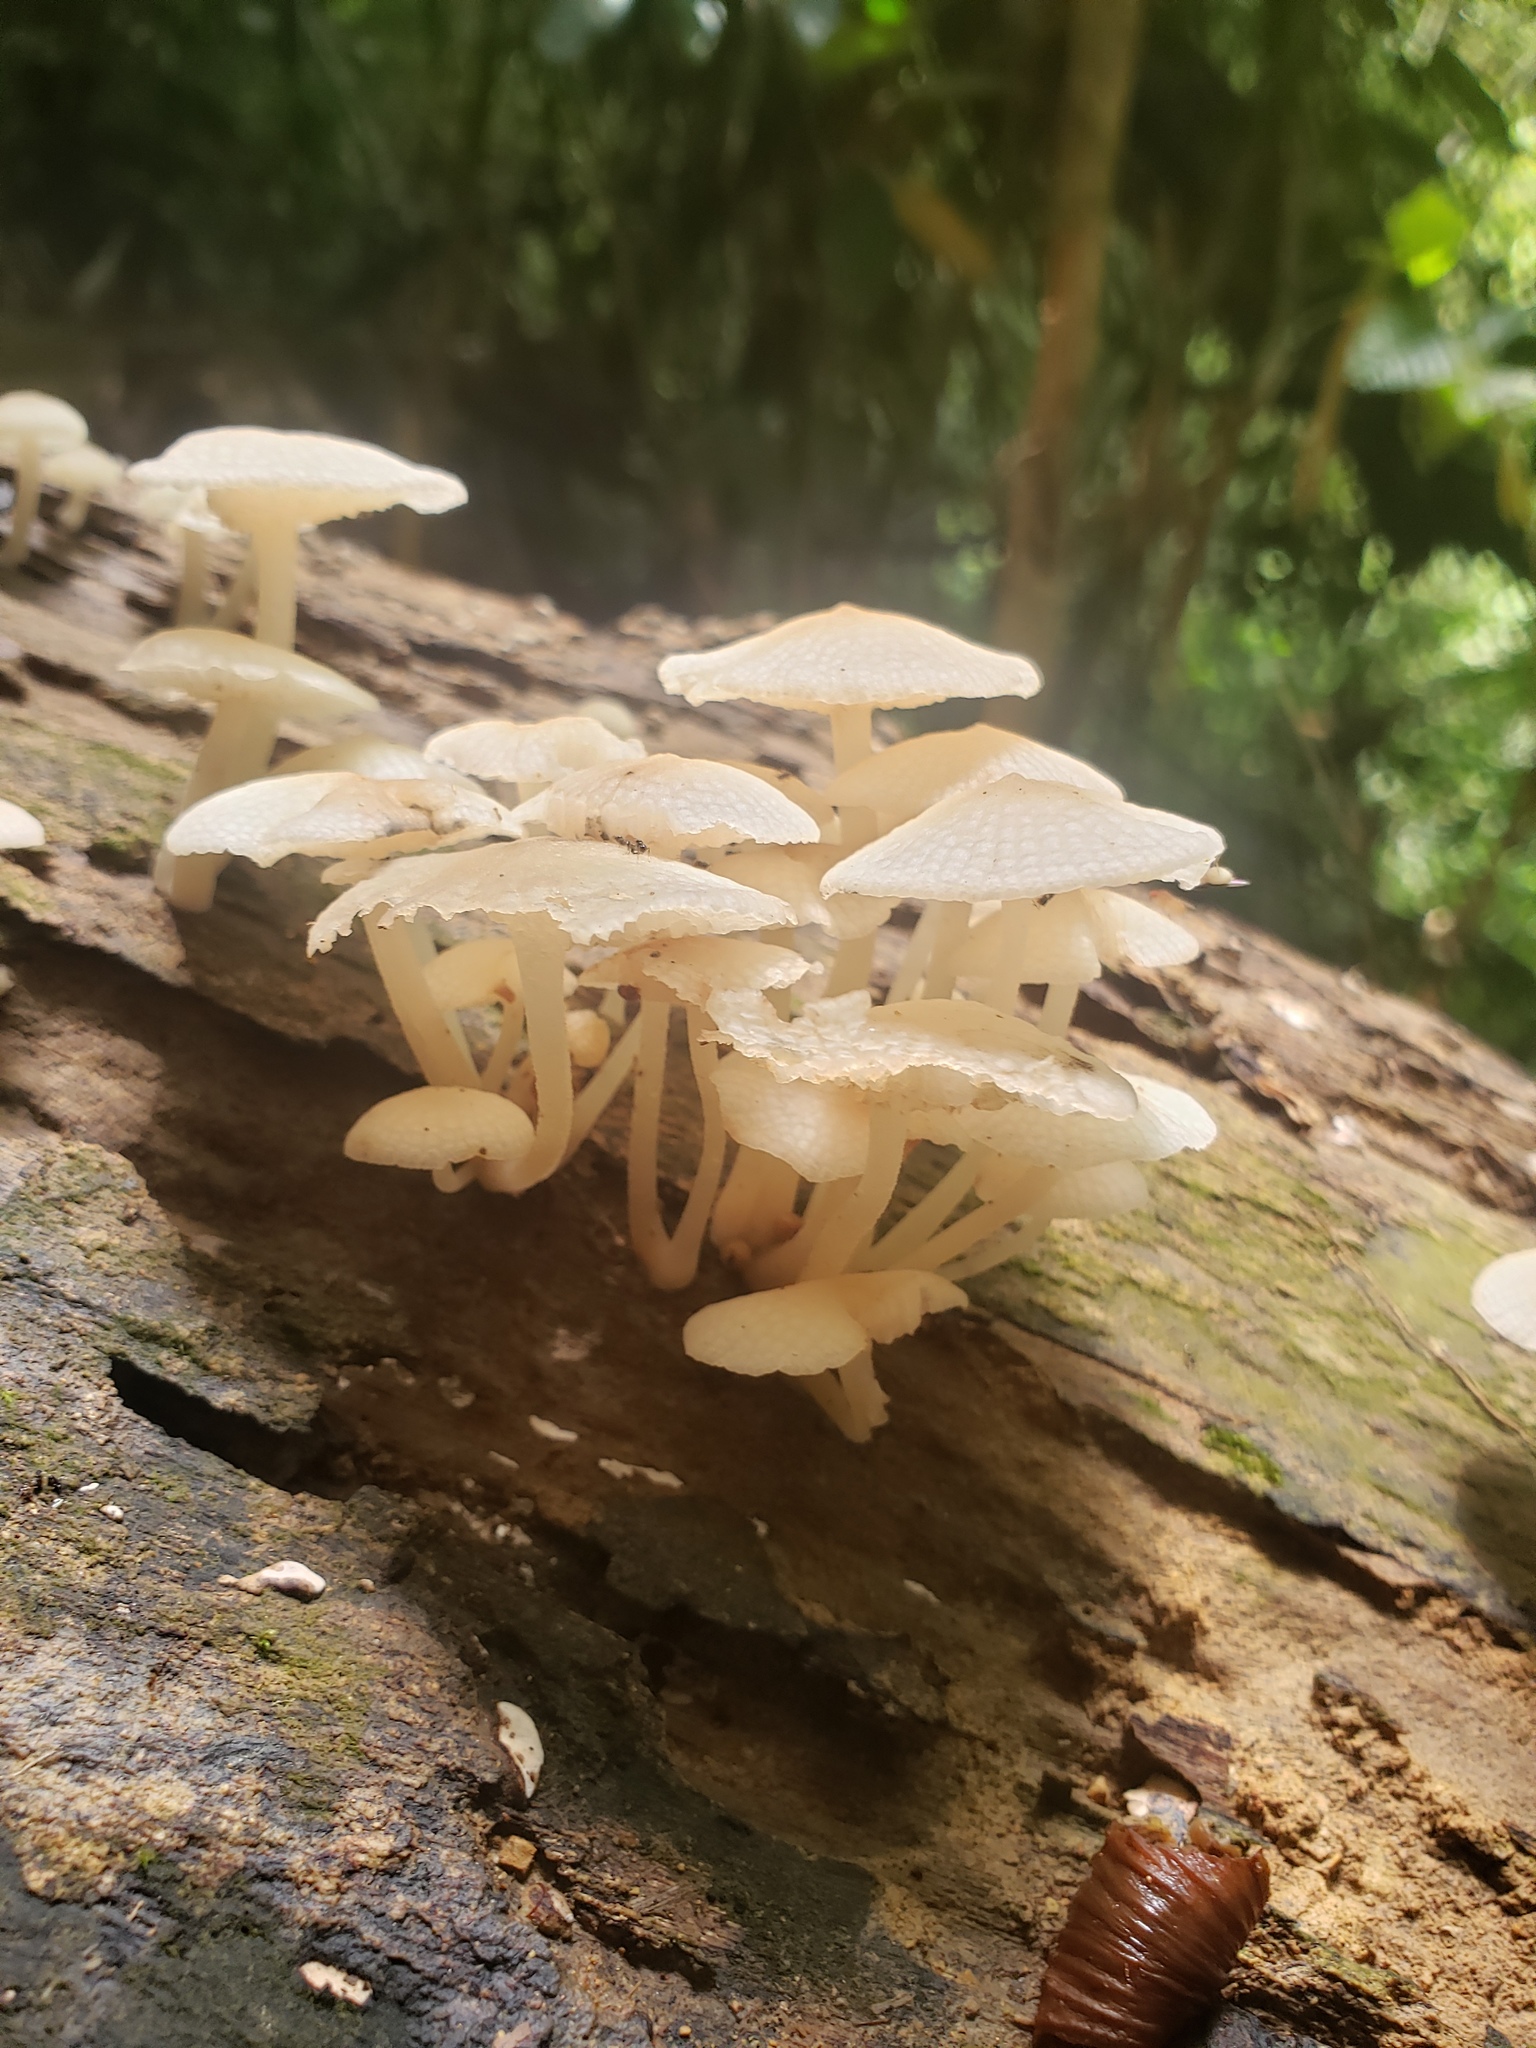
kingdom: Fungi
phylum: Basidiomycota
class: Agaricomycetes
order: Agaricales
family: Mycenaceae
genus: Filoboletus
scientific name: Filoboletus manipularis
